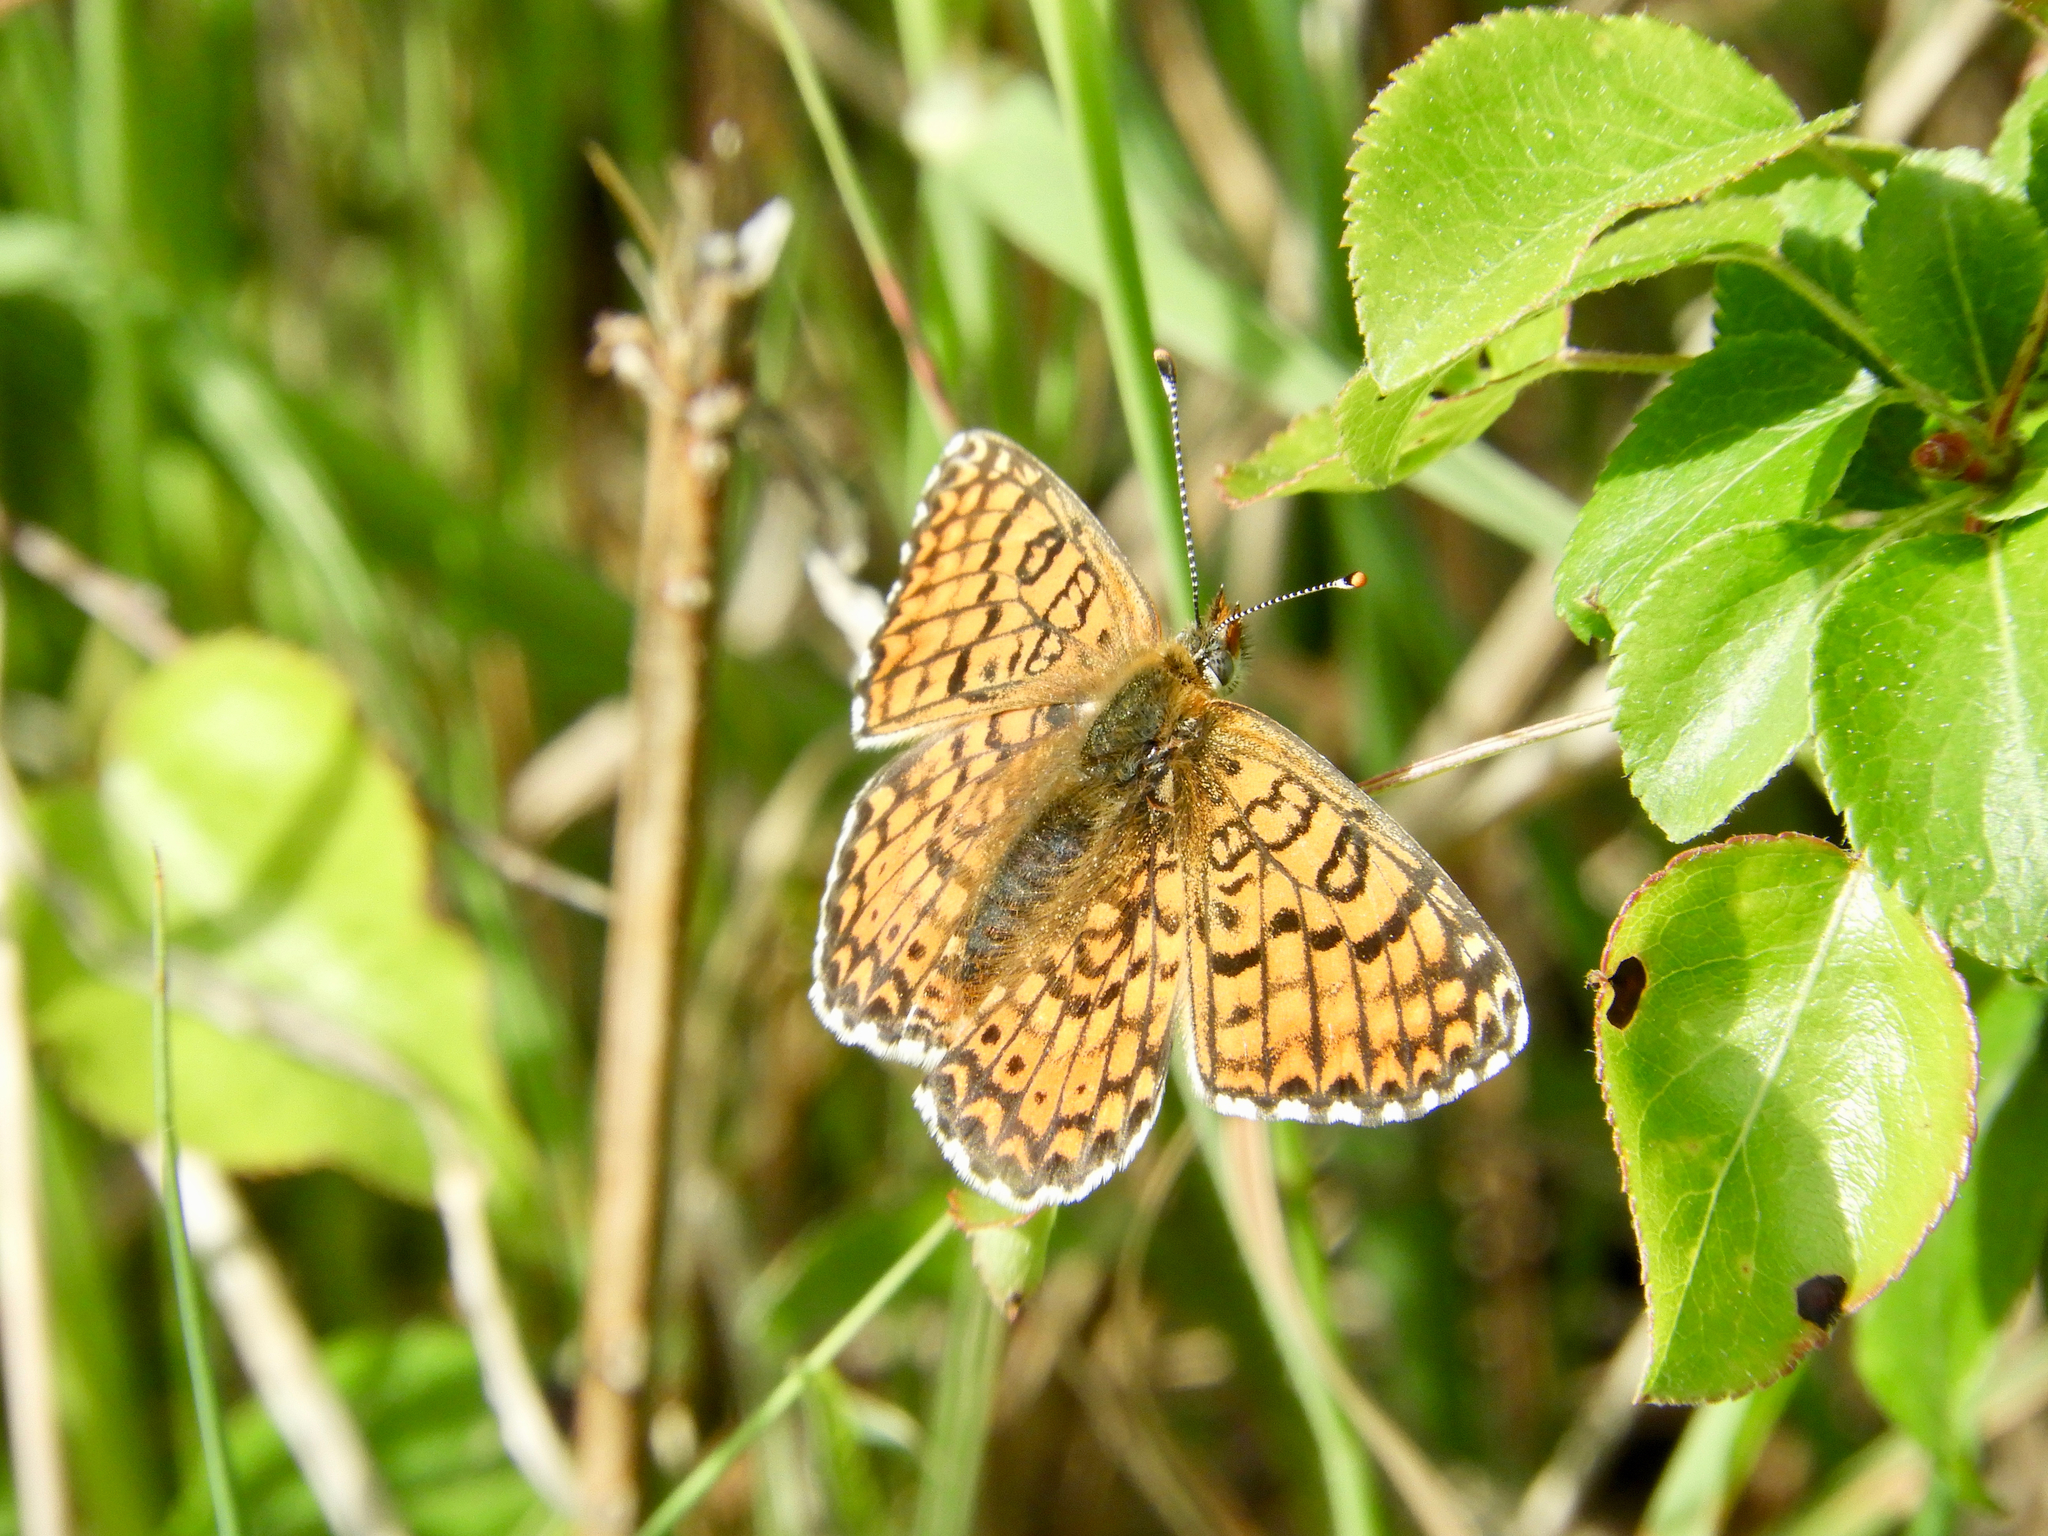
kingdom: Animalia
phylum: Arthropoda
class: Insecta
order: Lepidoptera
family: Nymphalidae
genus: Melitaea
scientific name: Melitaea cinxia
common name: Glanville fritillary
